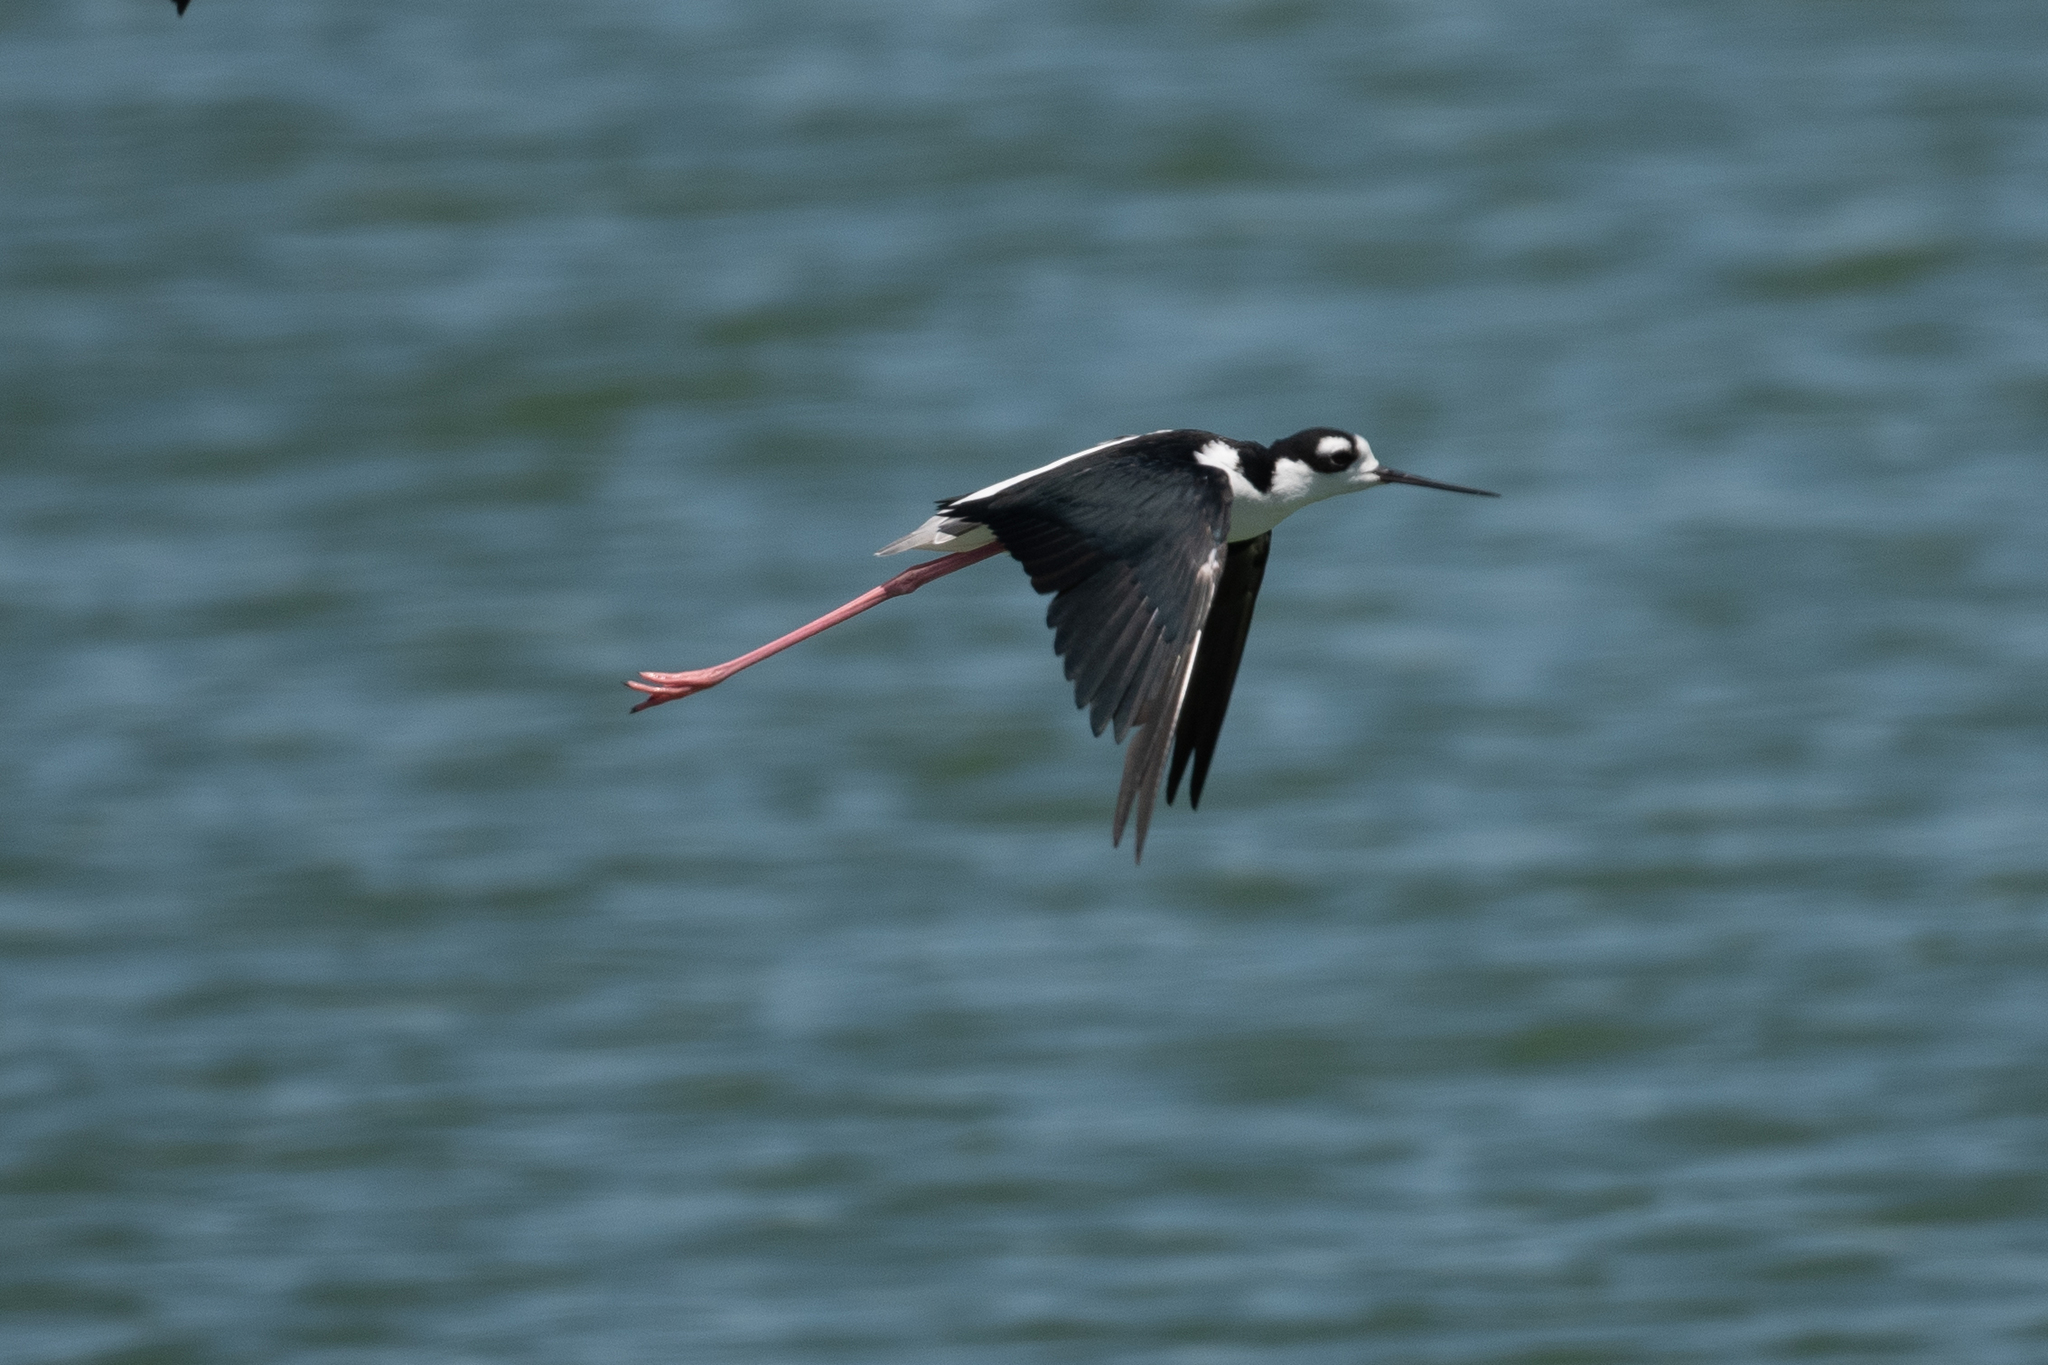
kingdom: Animalia
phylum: Chordata
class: Aves
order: Charadriiformes
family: Recurvirostridae
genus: Himantopus
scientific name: Himantopus mexicanus
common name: Black-necked stilt
